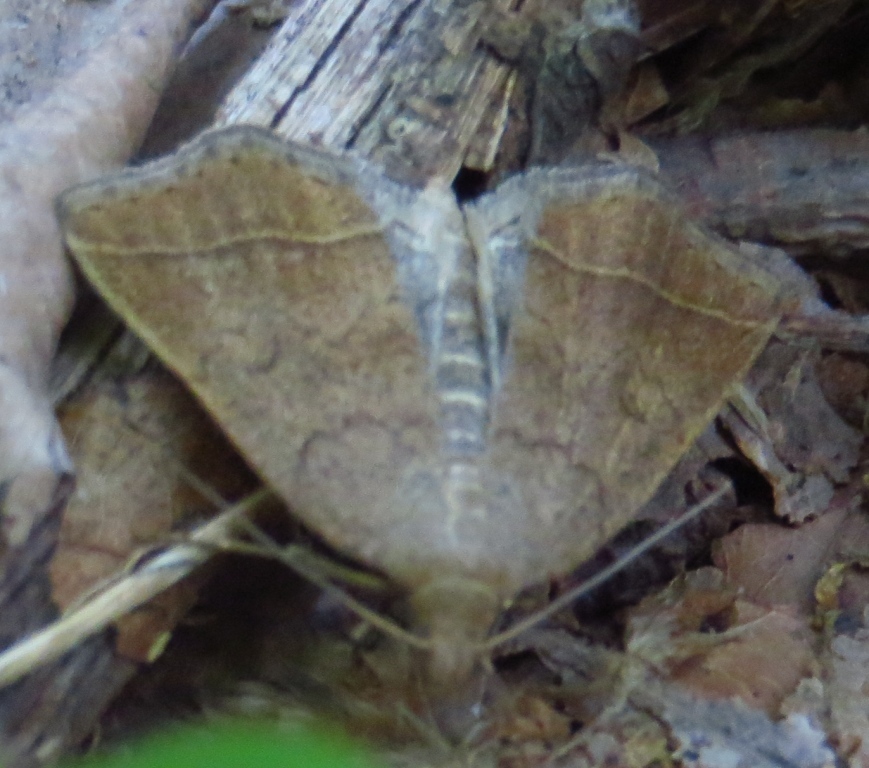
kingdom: Animalia
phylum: Arthropoda
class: Insecta
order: Lepidoptera
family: Erebidae
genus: Zanclognatha
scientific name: Zanclognatha jacchusalis
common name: Yellowish zanclognatha
